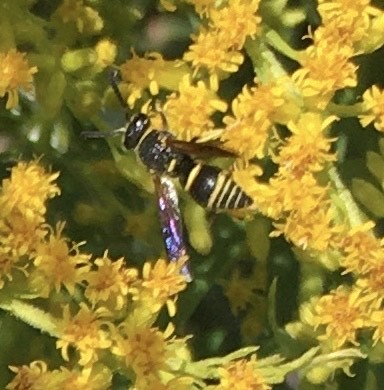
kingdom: Animalia
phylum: Arthropoda
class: Insecta
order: Hymenoptera
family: Eumenidae
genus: Euodynerus
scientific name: Euodynerus foraminatus
